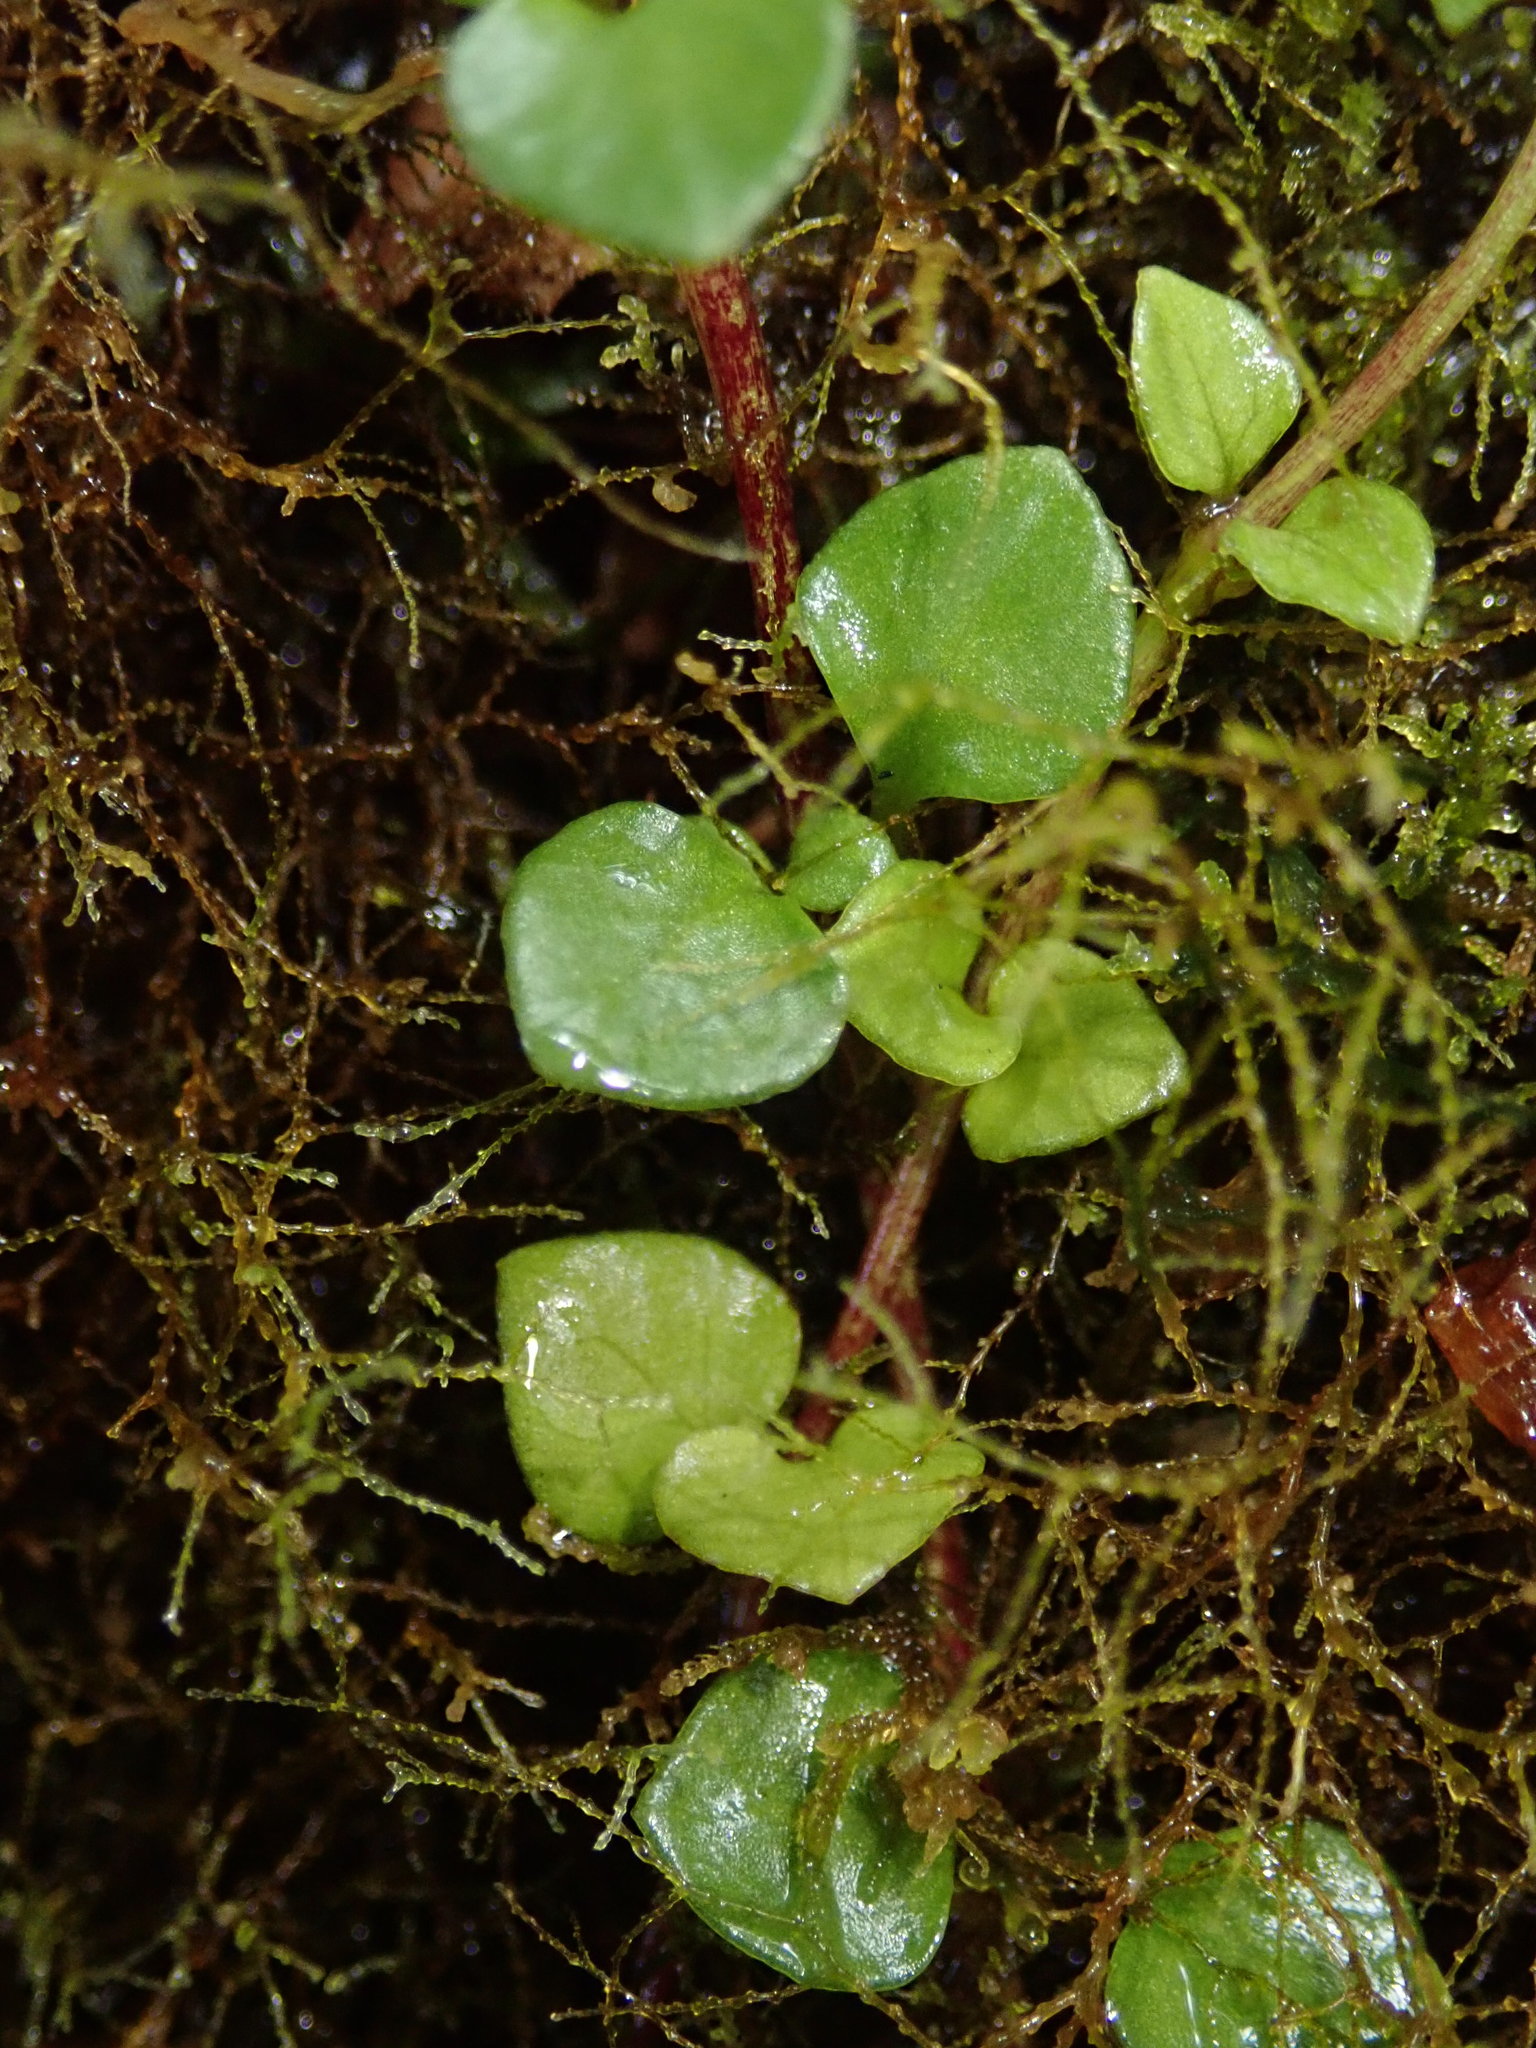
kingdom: Plantae
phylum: Tracheophyta
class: Magnoliopsida
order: Gentianales
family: Rubiaceae
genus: Nertera
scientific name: Nertera granadensis
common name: Beadplant
